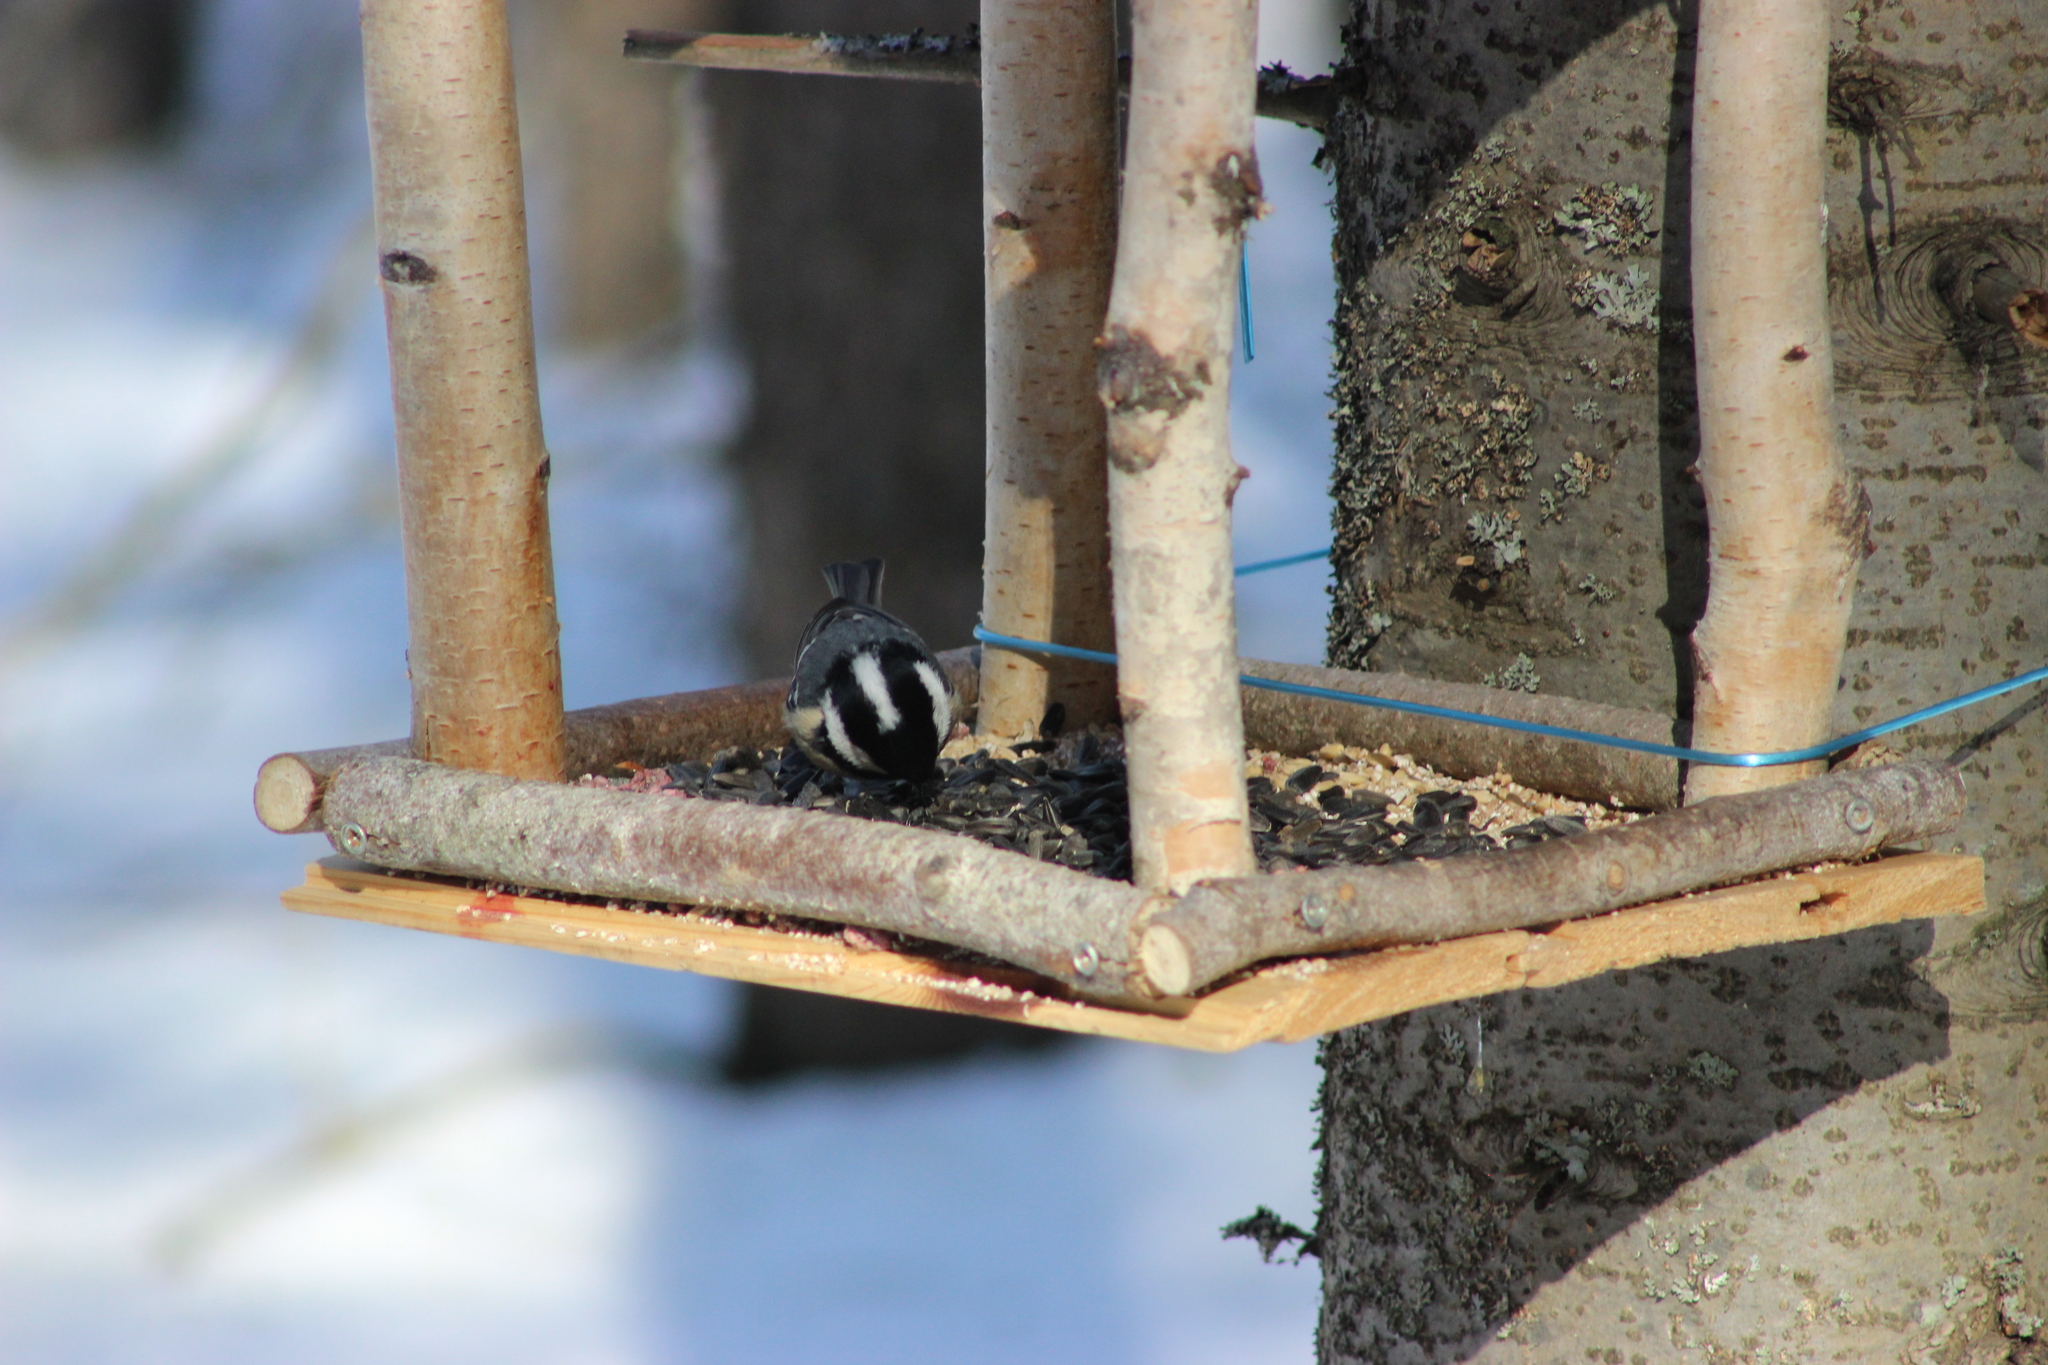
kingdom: Animalia
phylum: Chordata
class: Aves
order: Passeriformes
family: Paridae
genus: Periparus
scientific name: Periparus ater
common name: Coal tit
